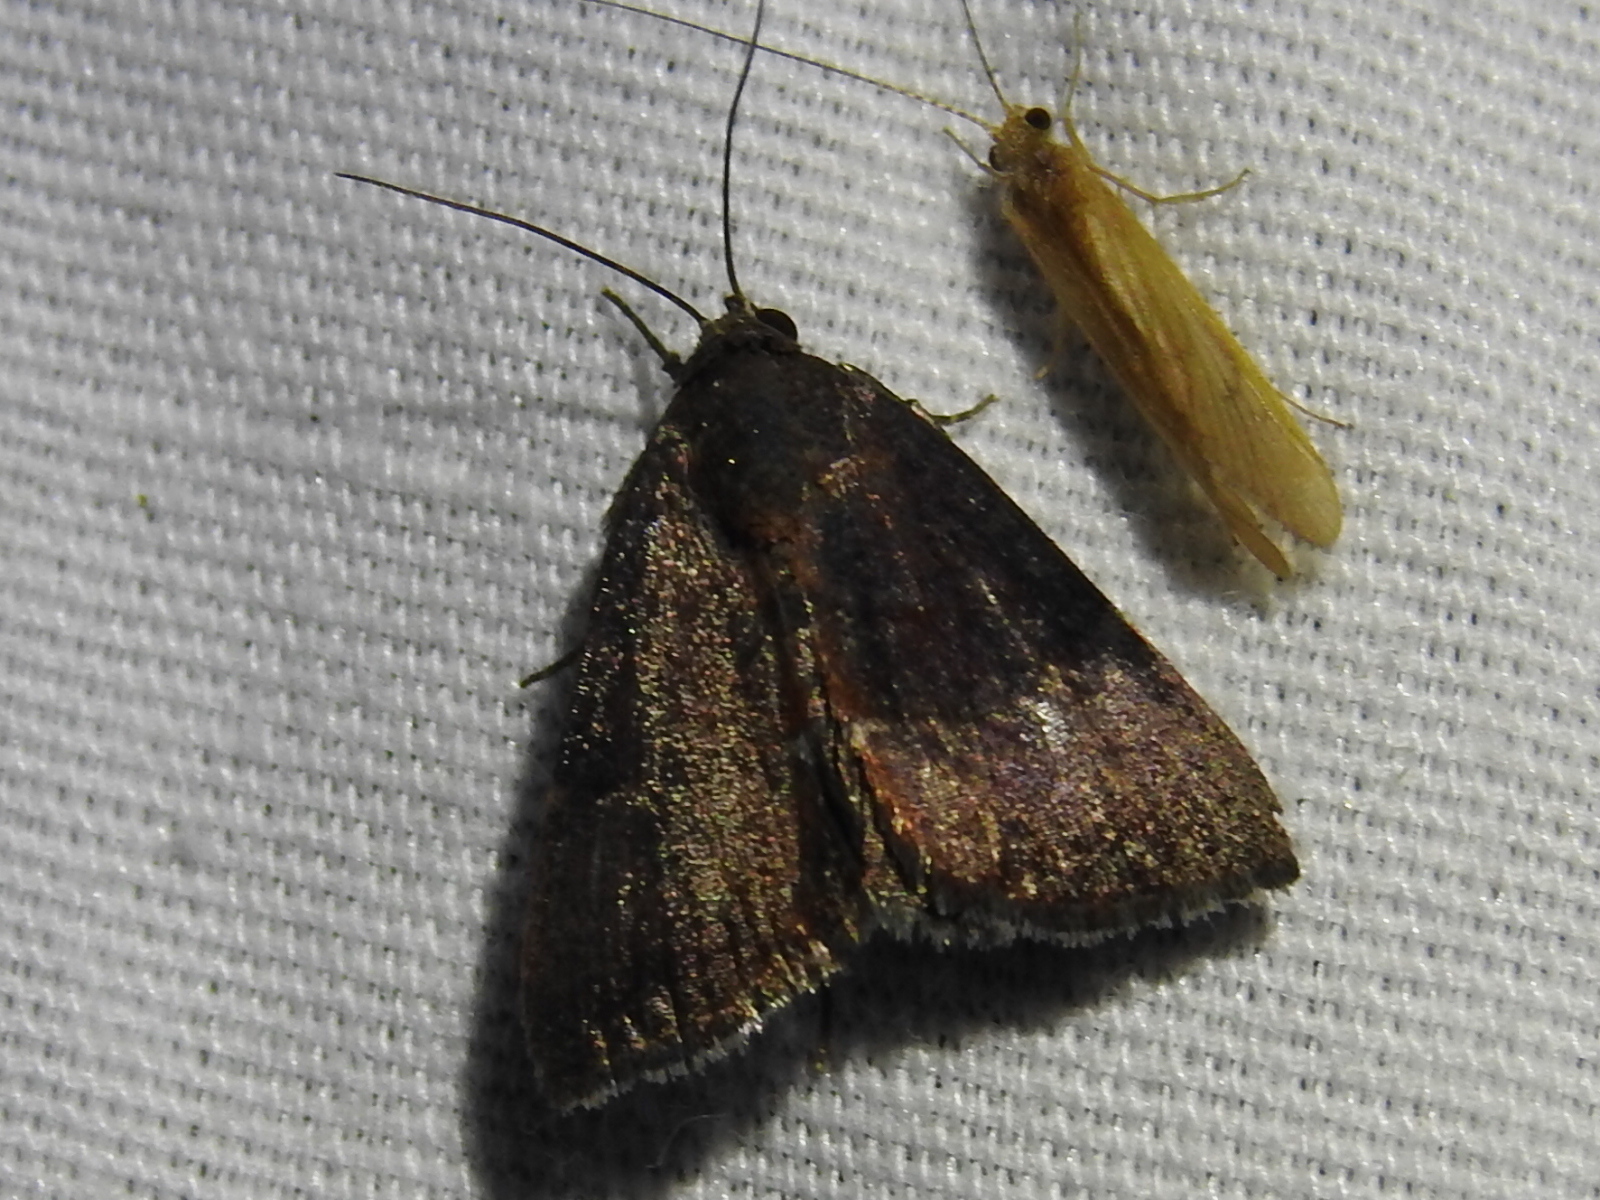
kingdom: Animalia
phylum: Arthropoda
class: Insecta
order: Lepidoptera
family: Noctuidae
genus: Galgula
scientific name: Galgula partita
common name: Wedgeling
